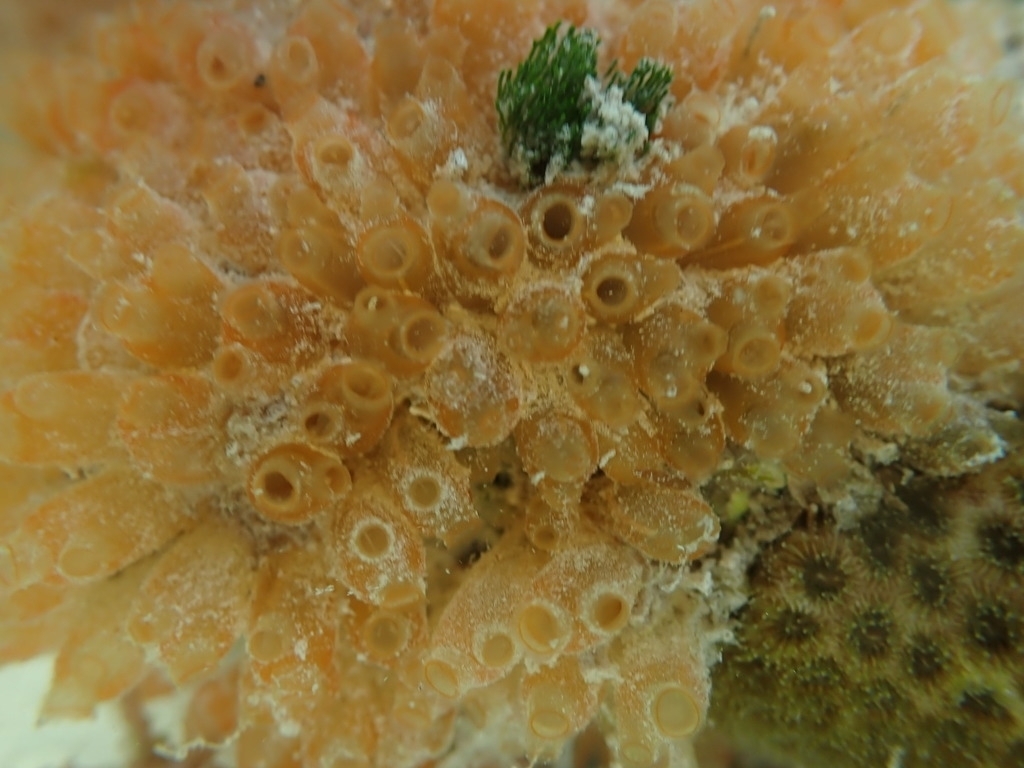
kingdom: Animalia
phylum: Chordata
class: Ascidiacea
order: Phlebobranchia
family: Perophoridae
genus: Ecteinascidia
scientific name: Ecteinascidia turbinata
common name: Mangrove tunicate
